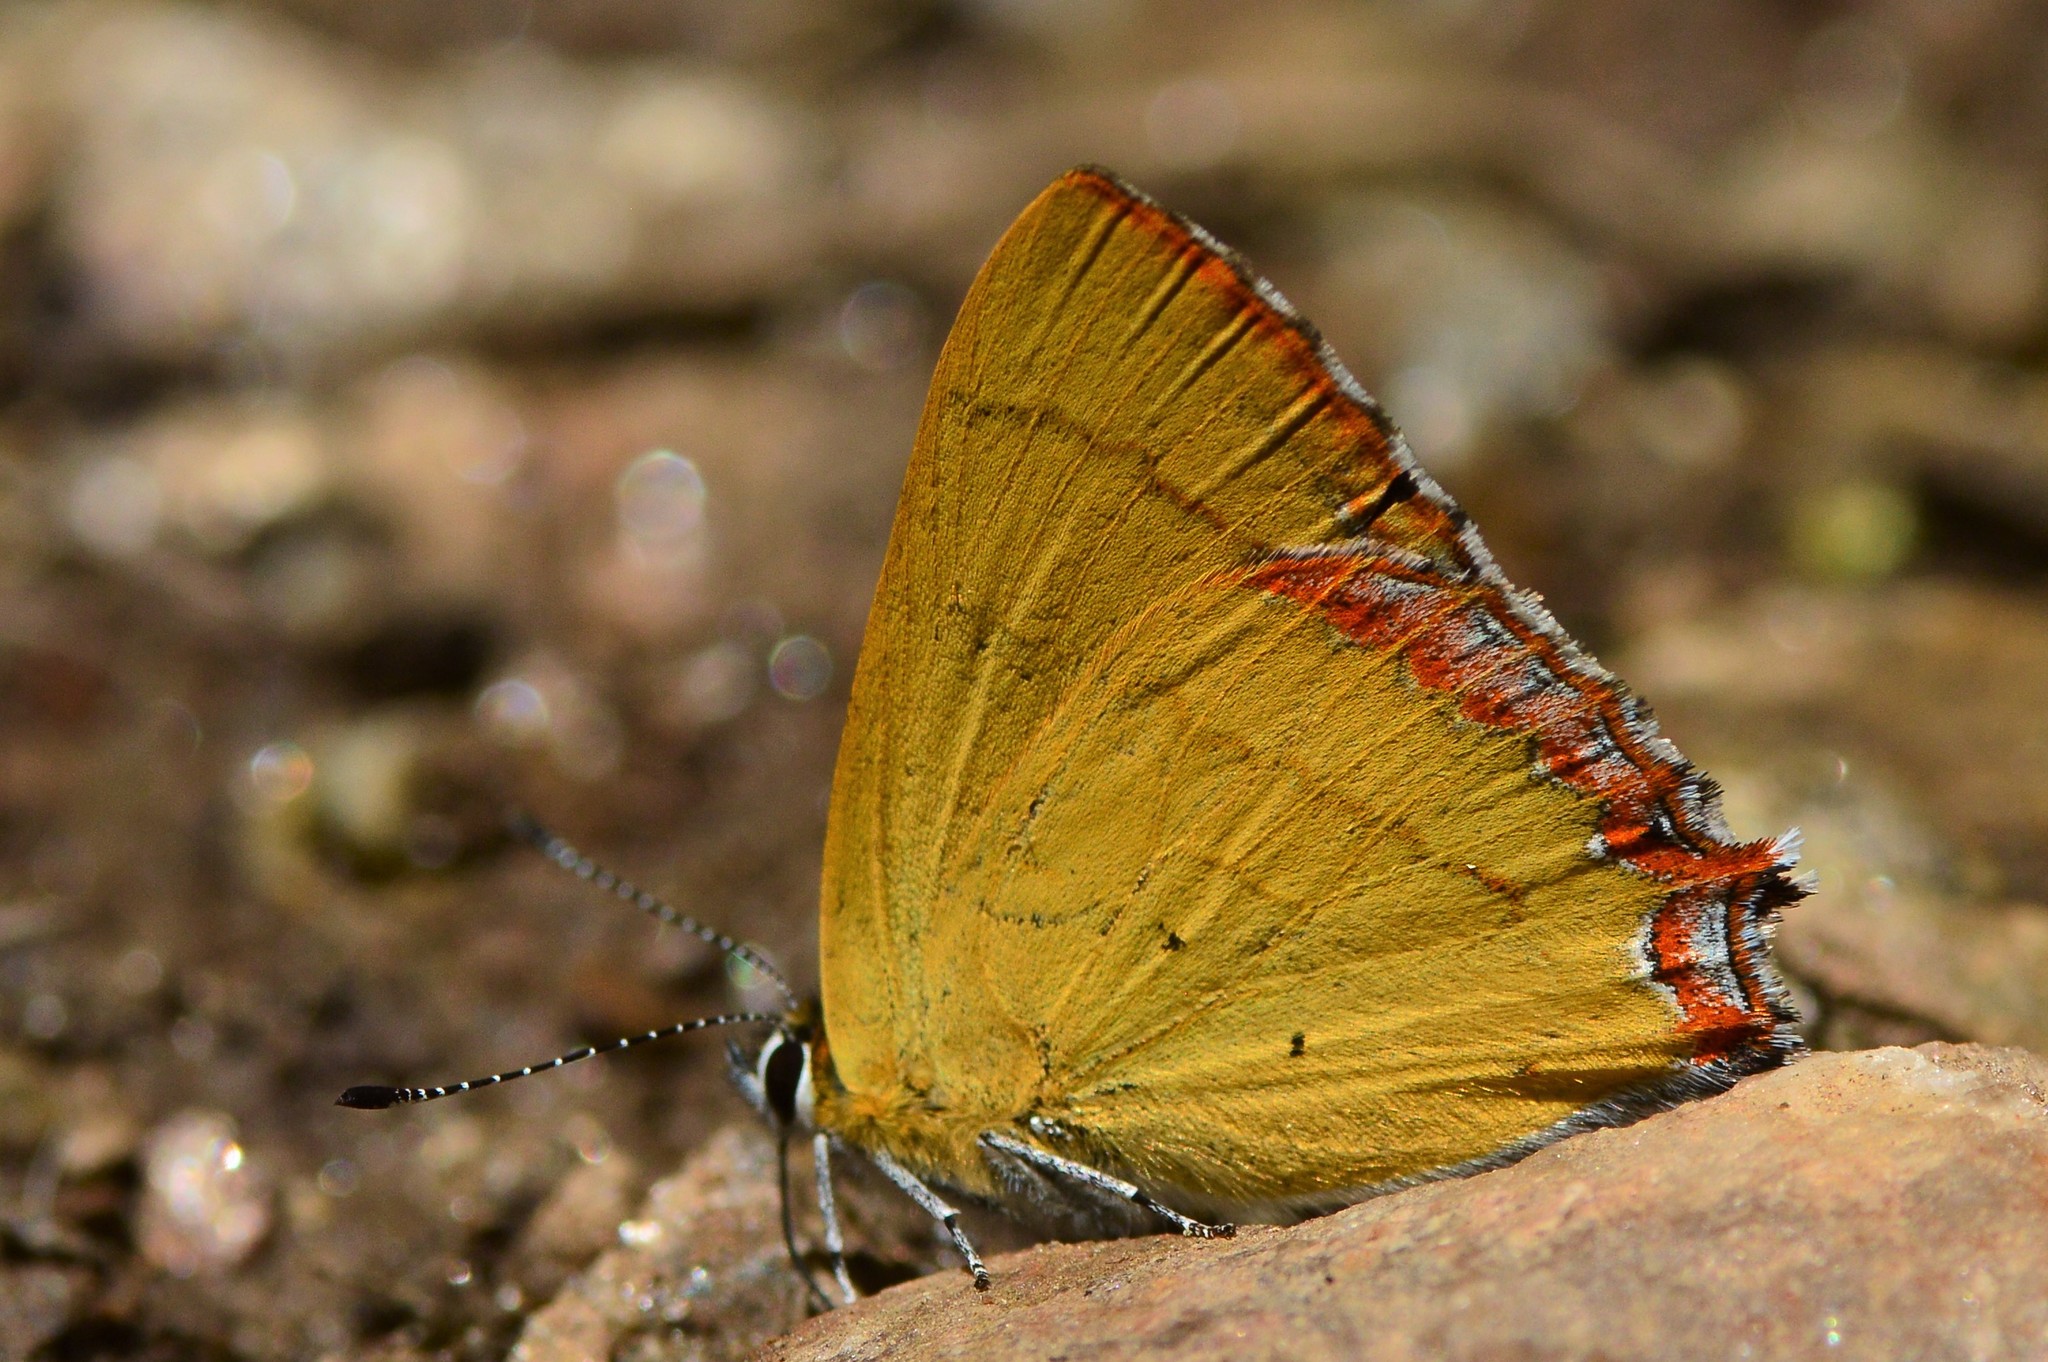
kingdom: Animalia
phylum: Arthropoda
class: Insecta
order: Lepidoptera
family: Lycaenidae
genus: Heliophorus
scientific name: Heliophorus
